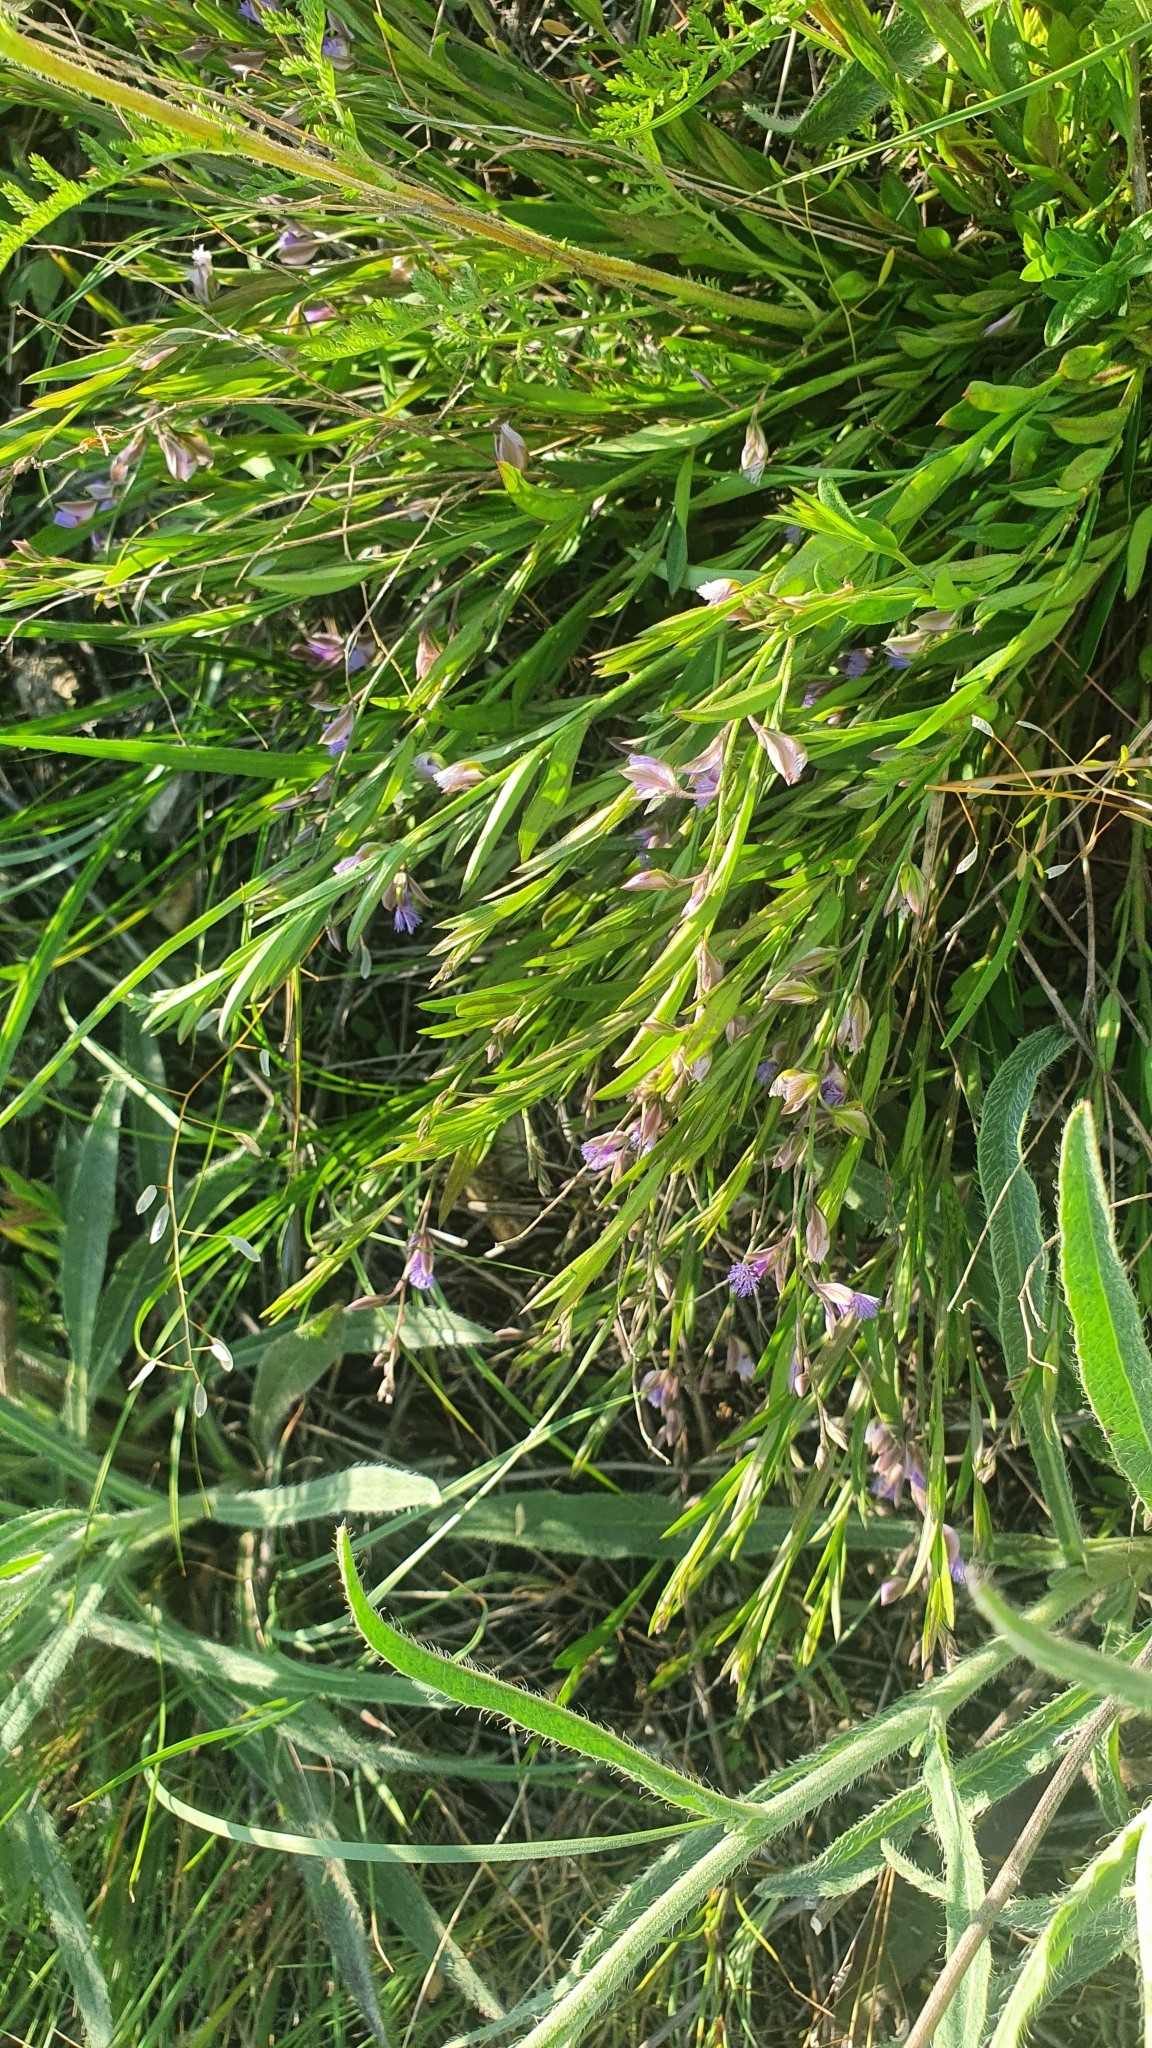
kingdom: Plantae
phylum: Tracheophyta
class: Magnoliopsida
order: Fabales
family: Polygalaceae
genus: Polygala
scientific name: Polygala sibirica
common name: Siberian polygala
